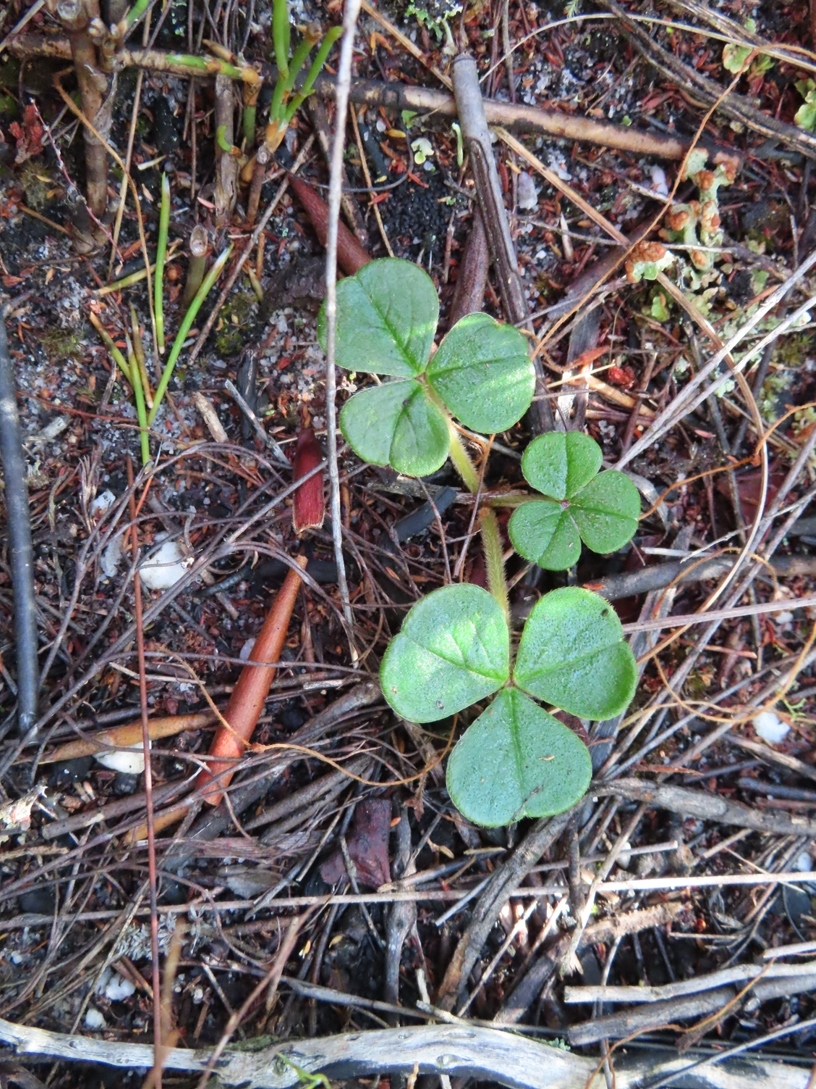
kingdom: Plantae
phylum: Tracheophyta
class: Magnoliopsida
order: Oxalidales
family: Oxalidaceae
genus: Oxalis
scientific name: Oxalis truncatula
